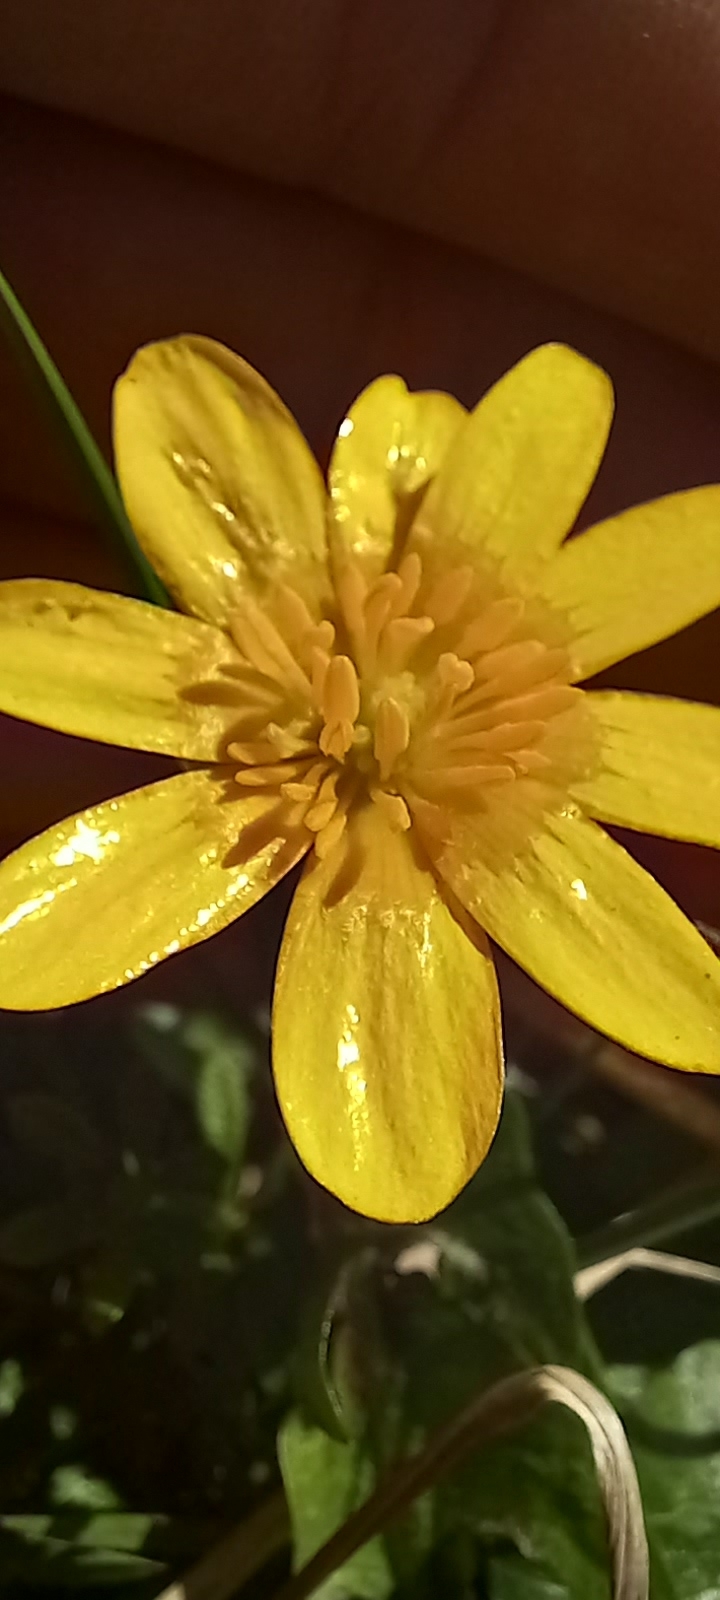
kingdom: Plantae
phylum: Tracheophyta
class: Magnoliopsida
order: Ranunculales
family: Ranunculaceae
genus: Ficaria
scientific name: Ficaria verna
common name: Lesser celandine
